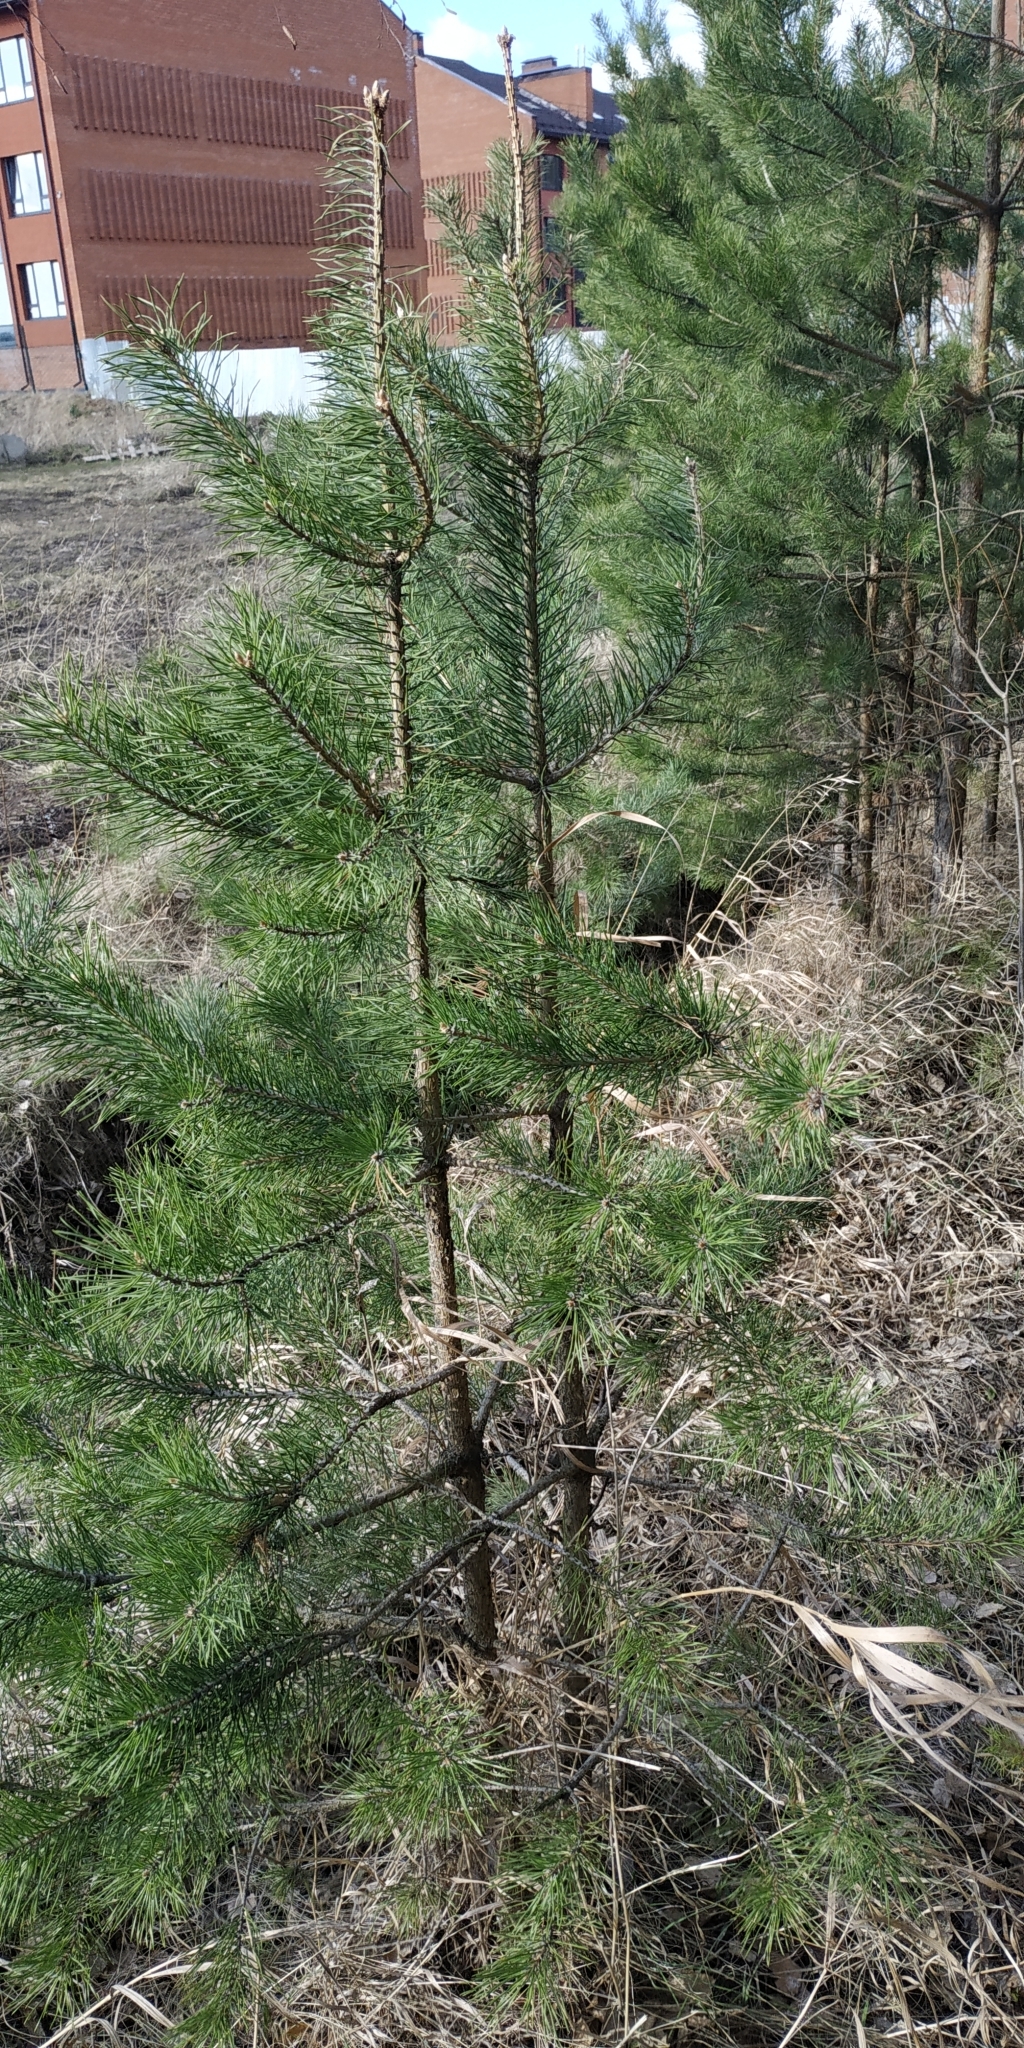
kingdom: Plantae
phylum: Tracheophyta
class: Pinopsida
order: Pinales
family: Pinaceae
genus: Pinus
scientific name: Pinus sylvestris
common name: Scots pine
